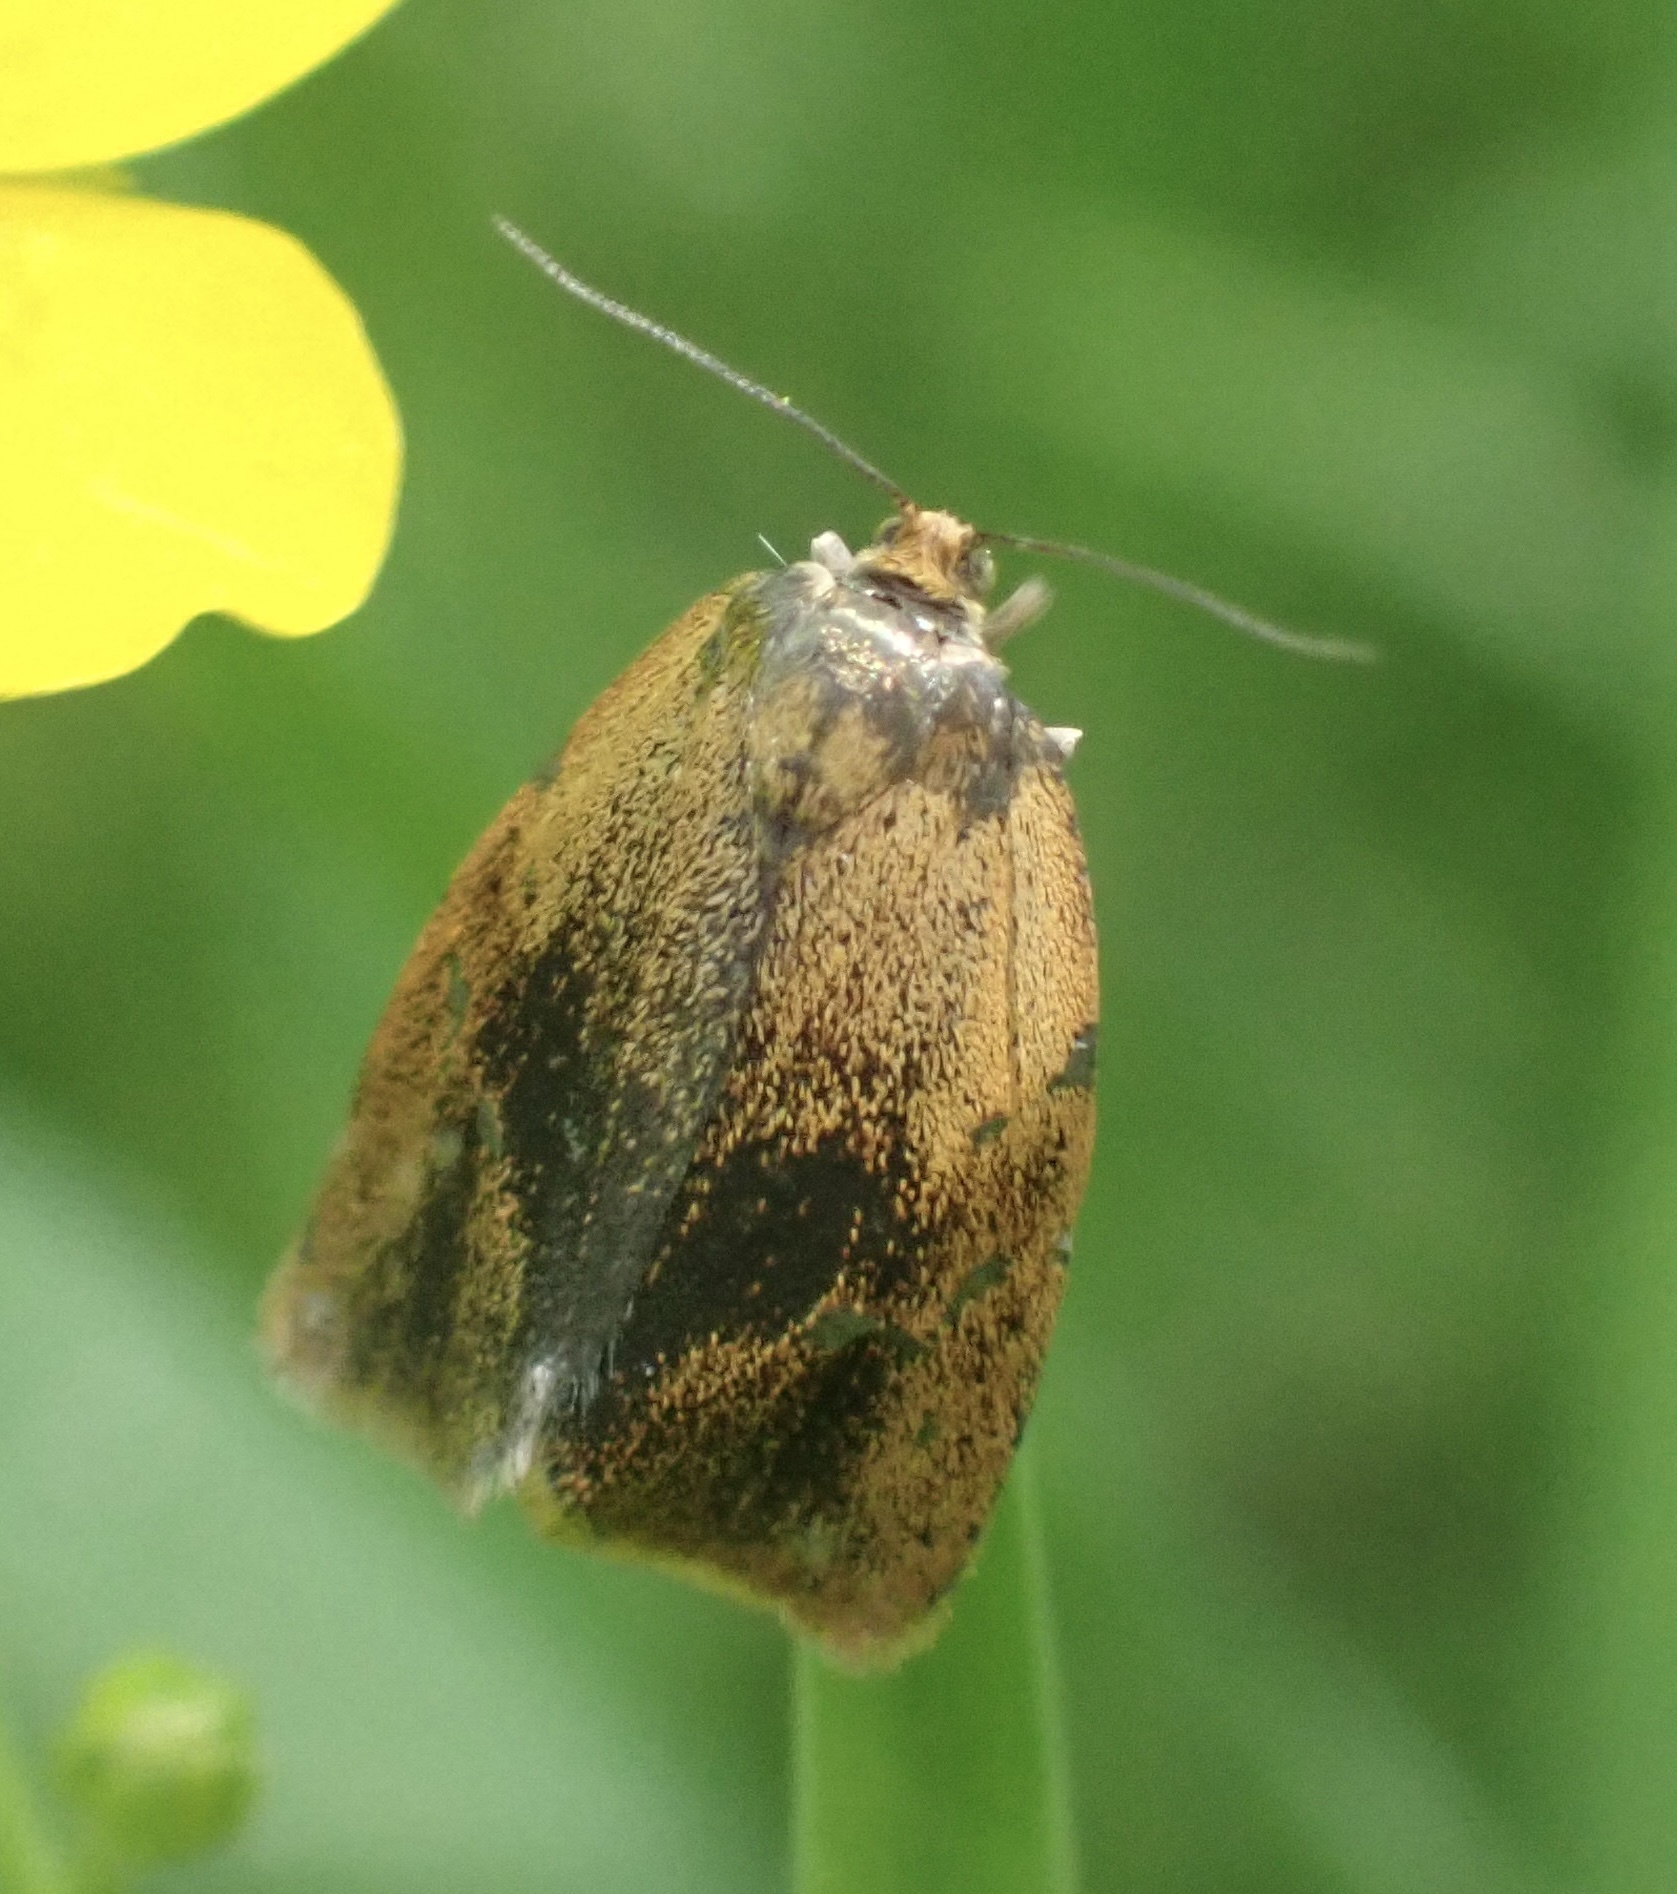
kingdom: Animalia
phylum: Arthropoda
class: Insecta
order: Lepidoptera
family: Tortricidae
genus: Ptycholoma
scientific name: Ptycholoma lecheana
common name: Leches twist moth
